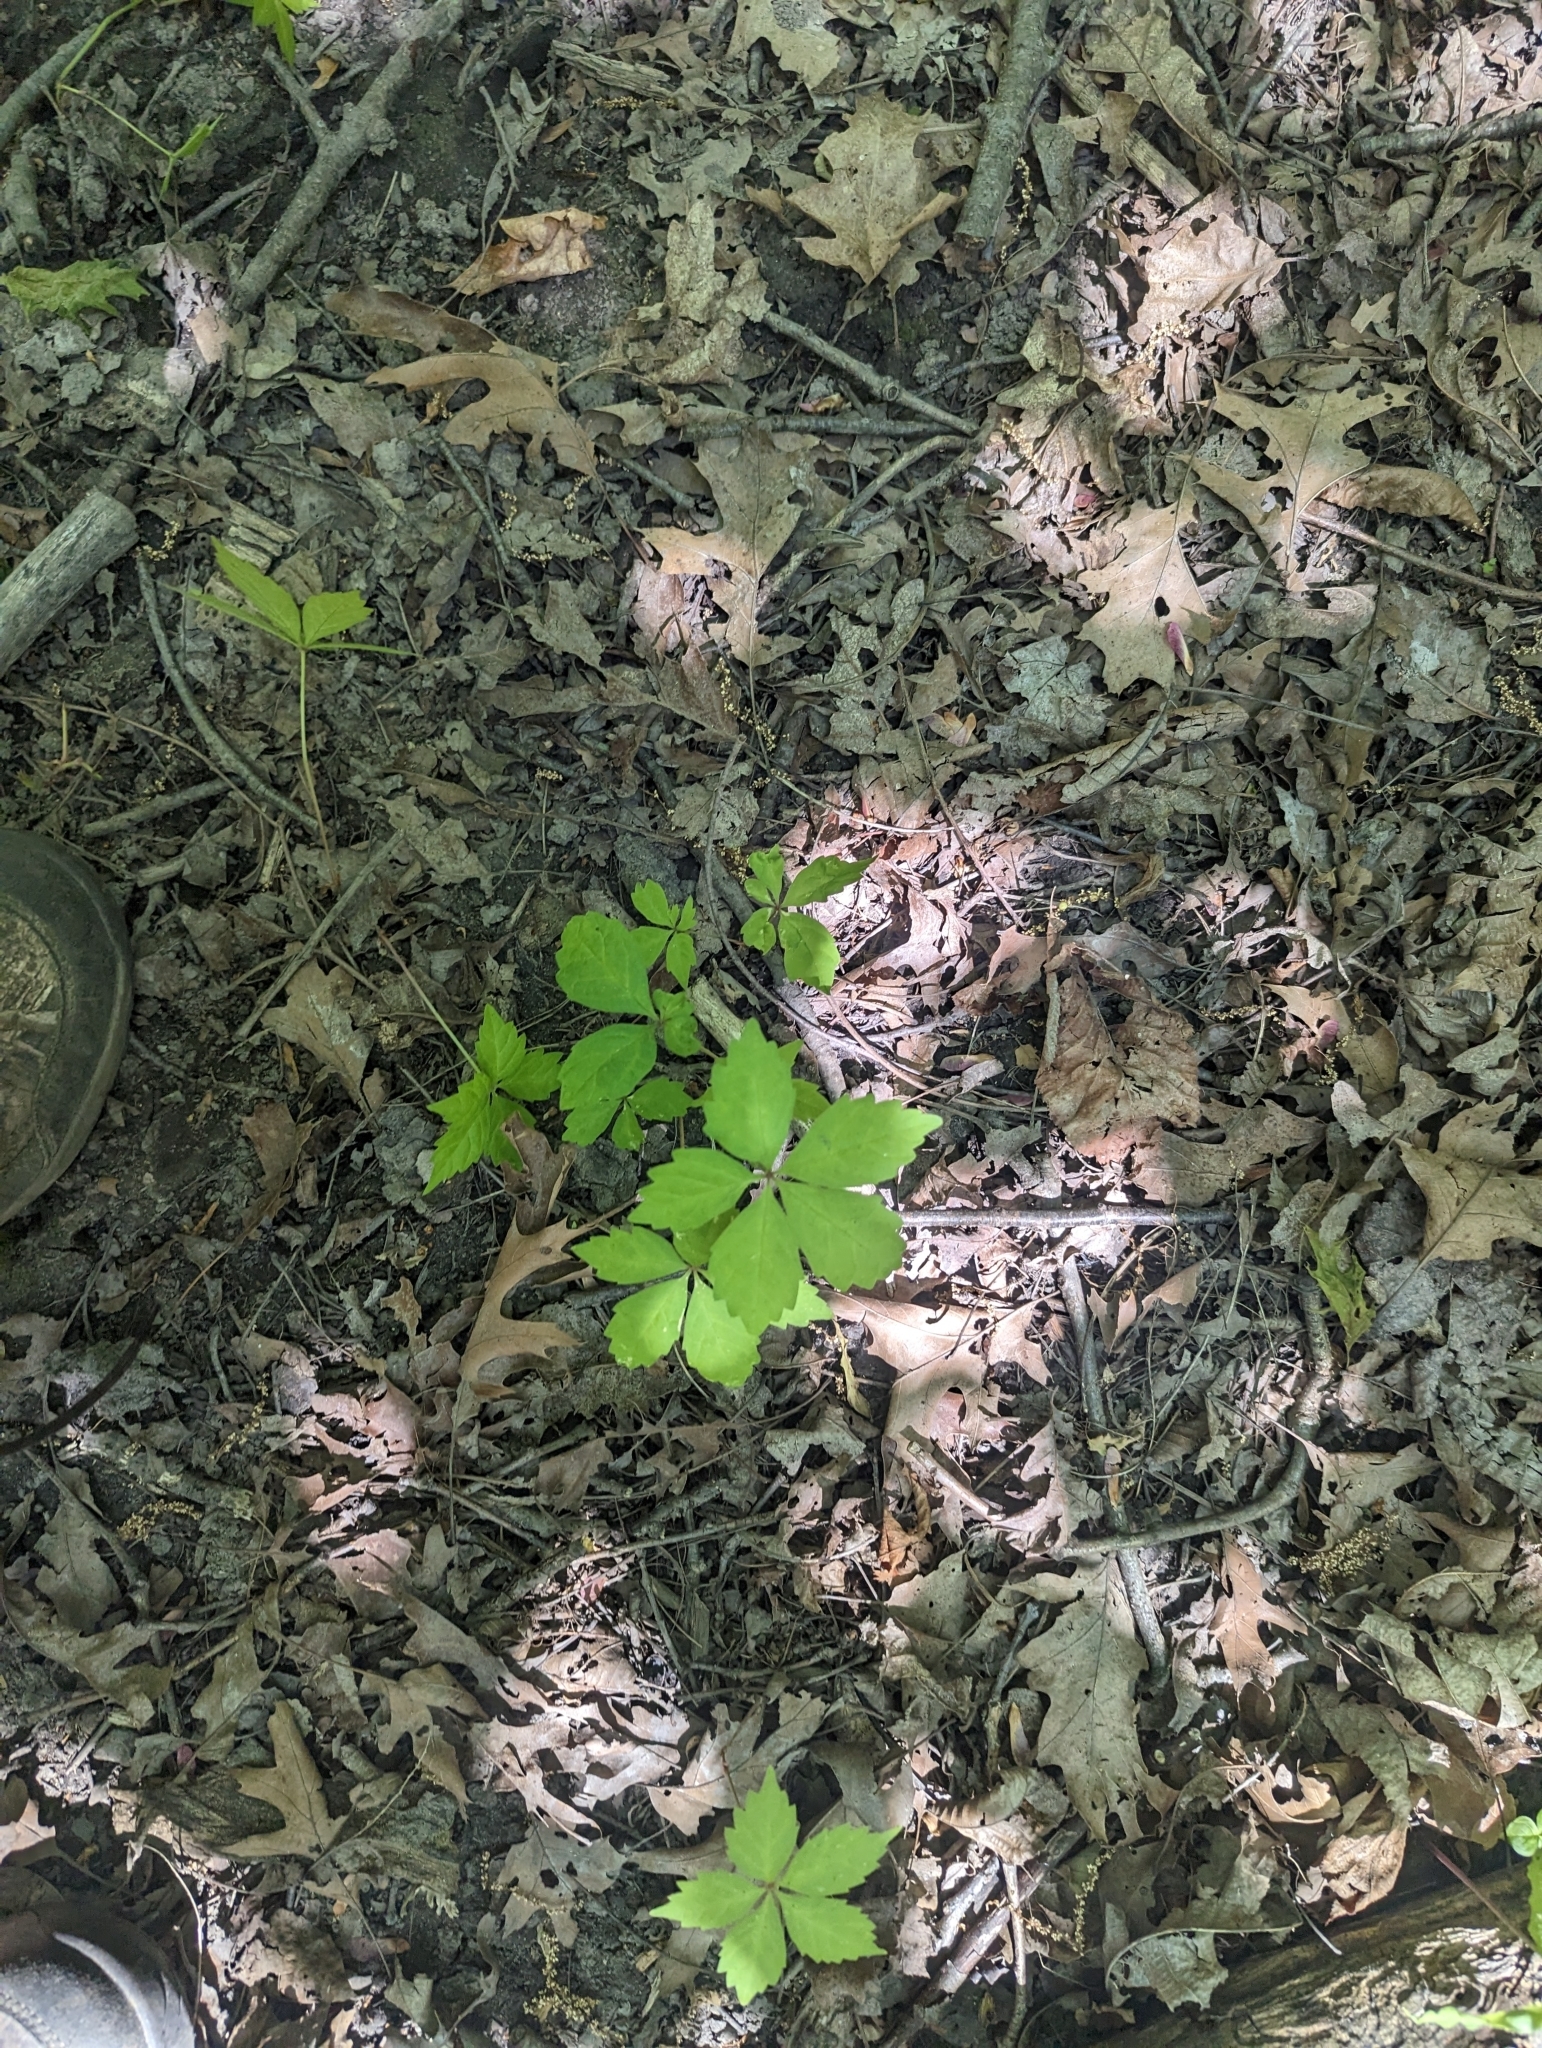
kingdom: Plantae
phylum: Tracheophyta
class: Magnoliopsida
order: Vitales
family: Vitaceae
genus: Parthenocissus
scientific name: Parthenocissus quinquefolia
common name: Virginia-creeper
